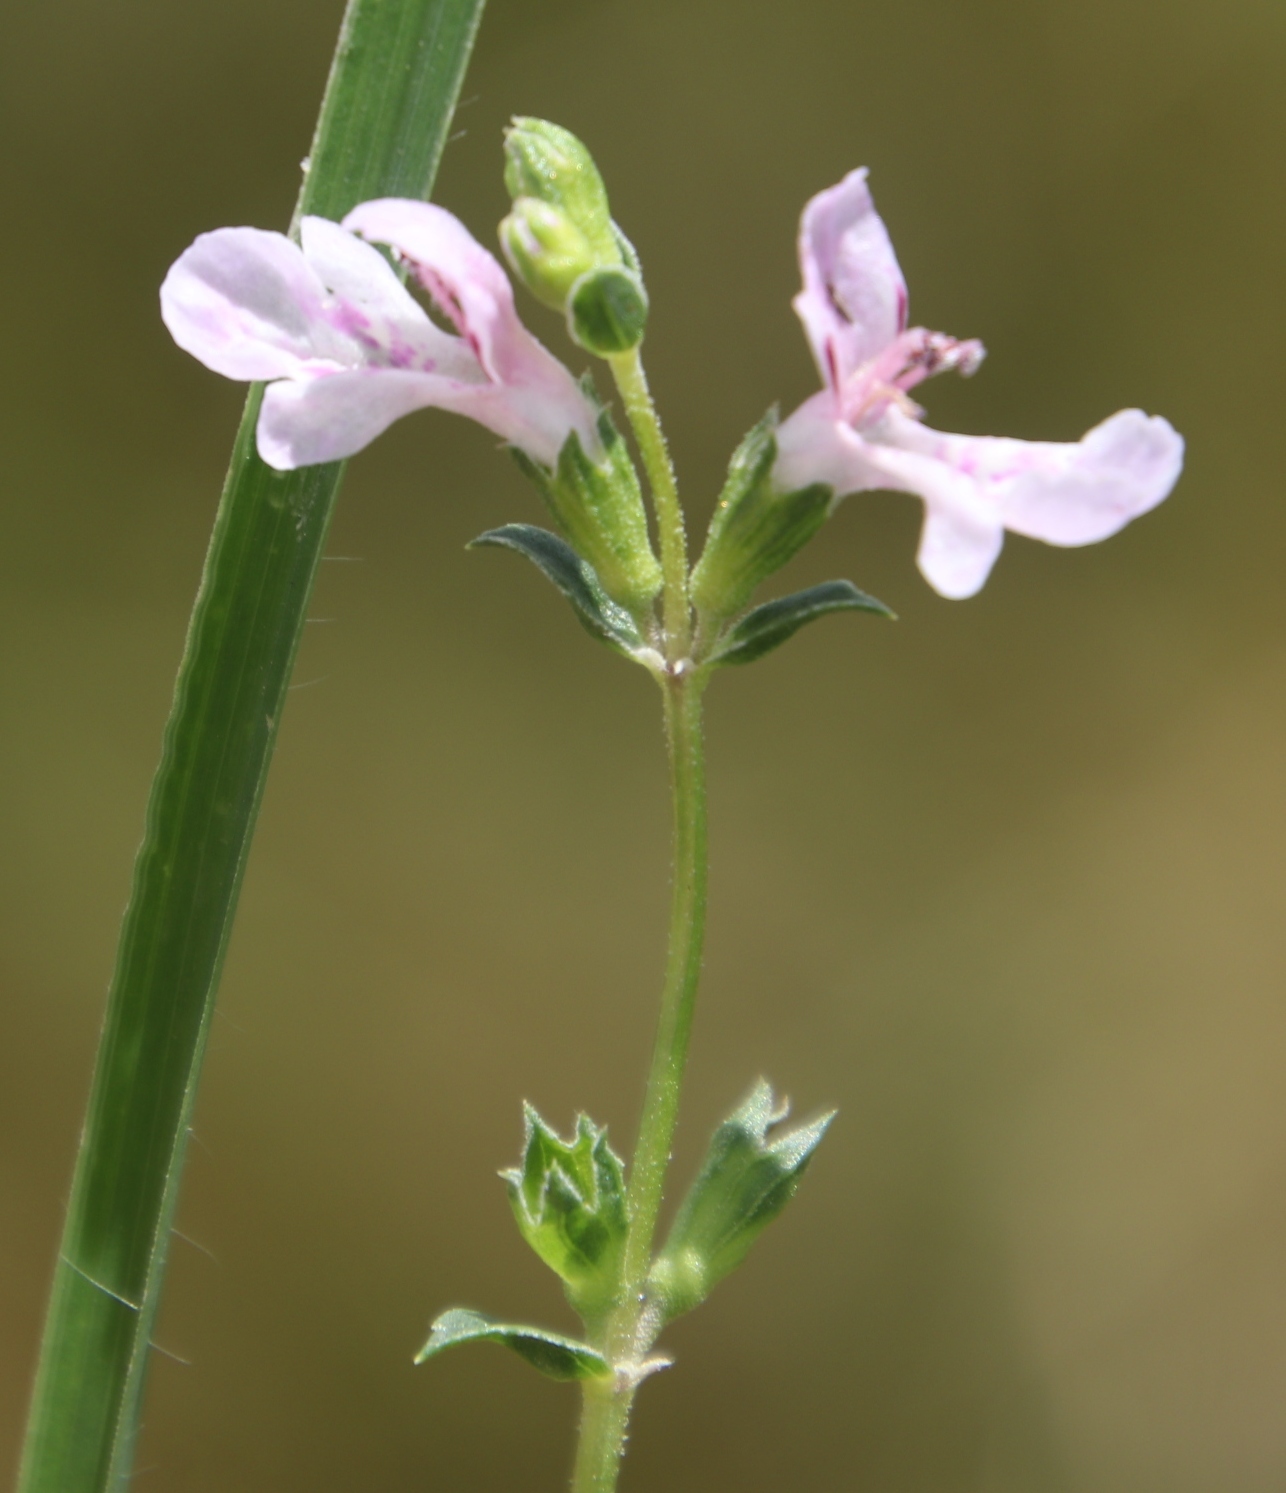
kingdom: Plantae
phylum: Tracheophyta
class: Magnoliopsida
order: Lamiales
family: Lamiaceae
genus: Stachys
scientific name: Stachys hyssopoides
